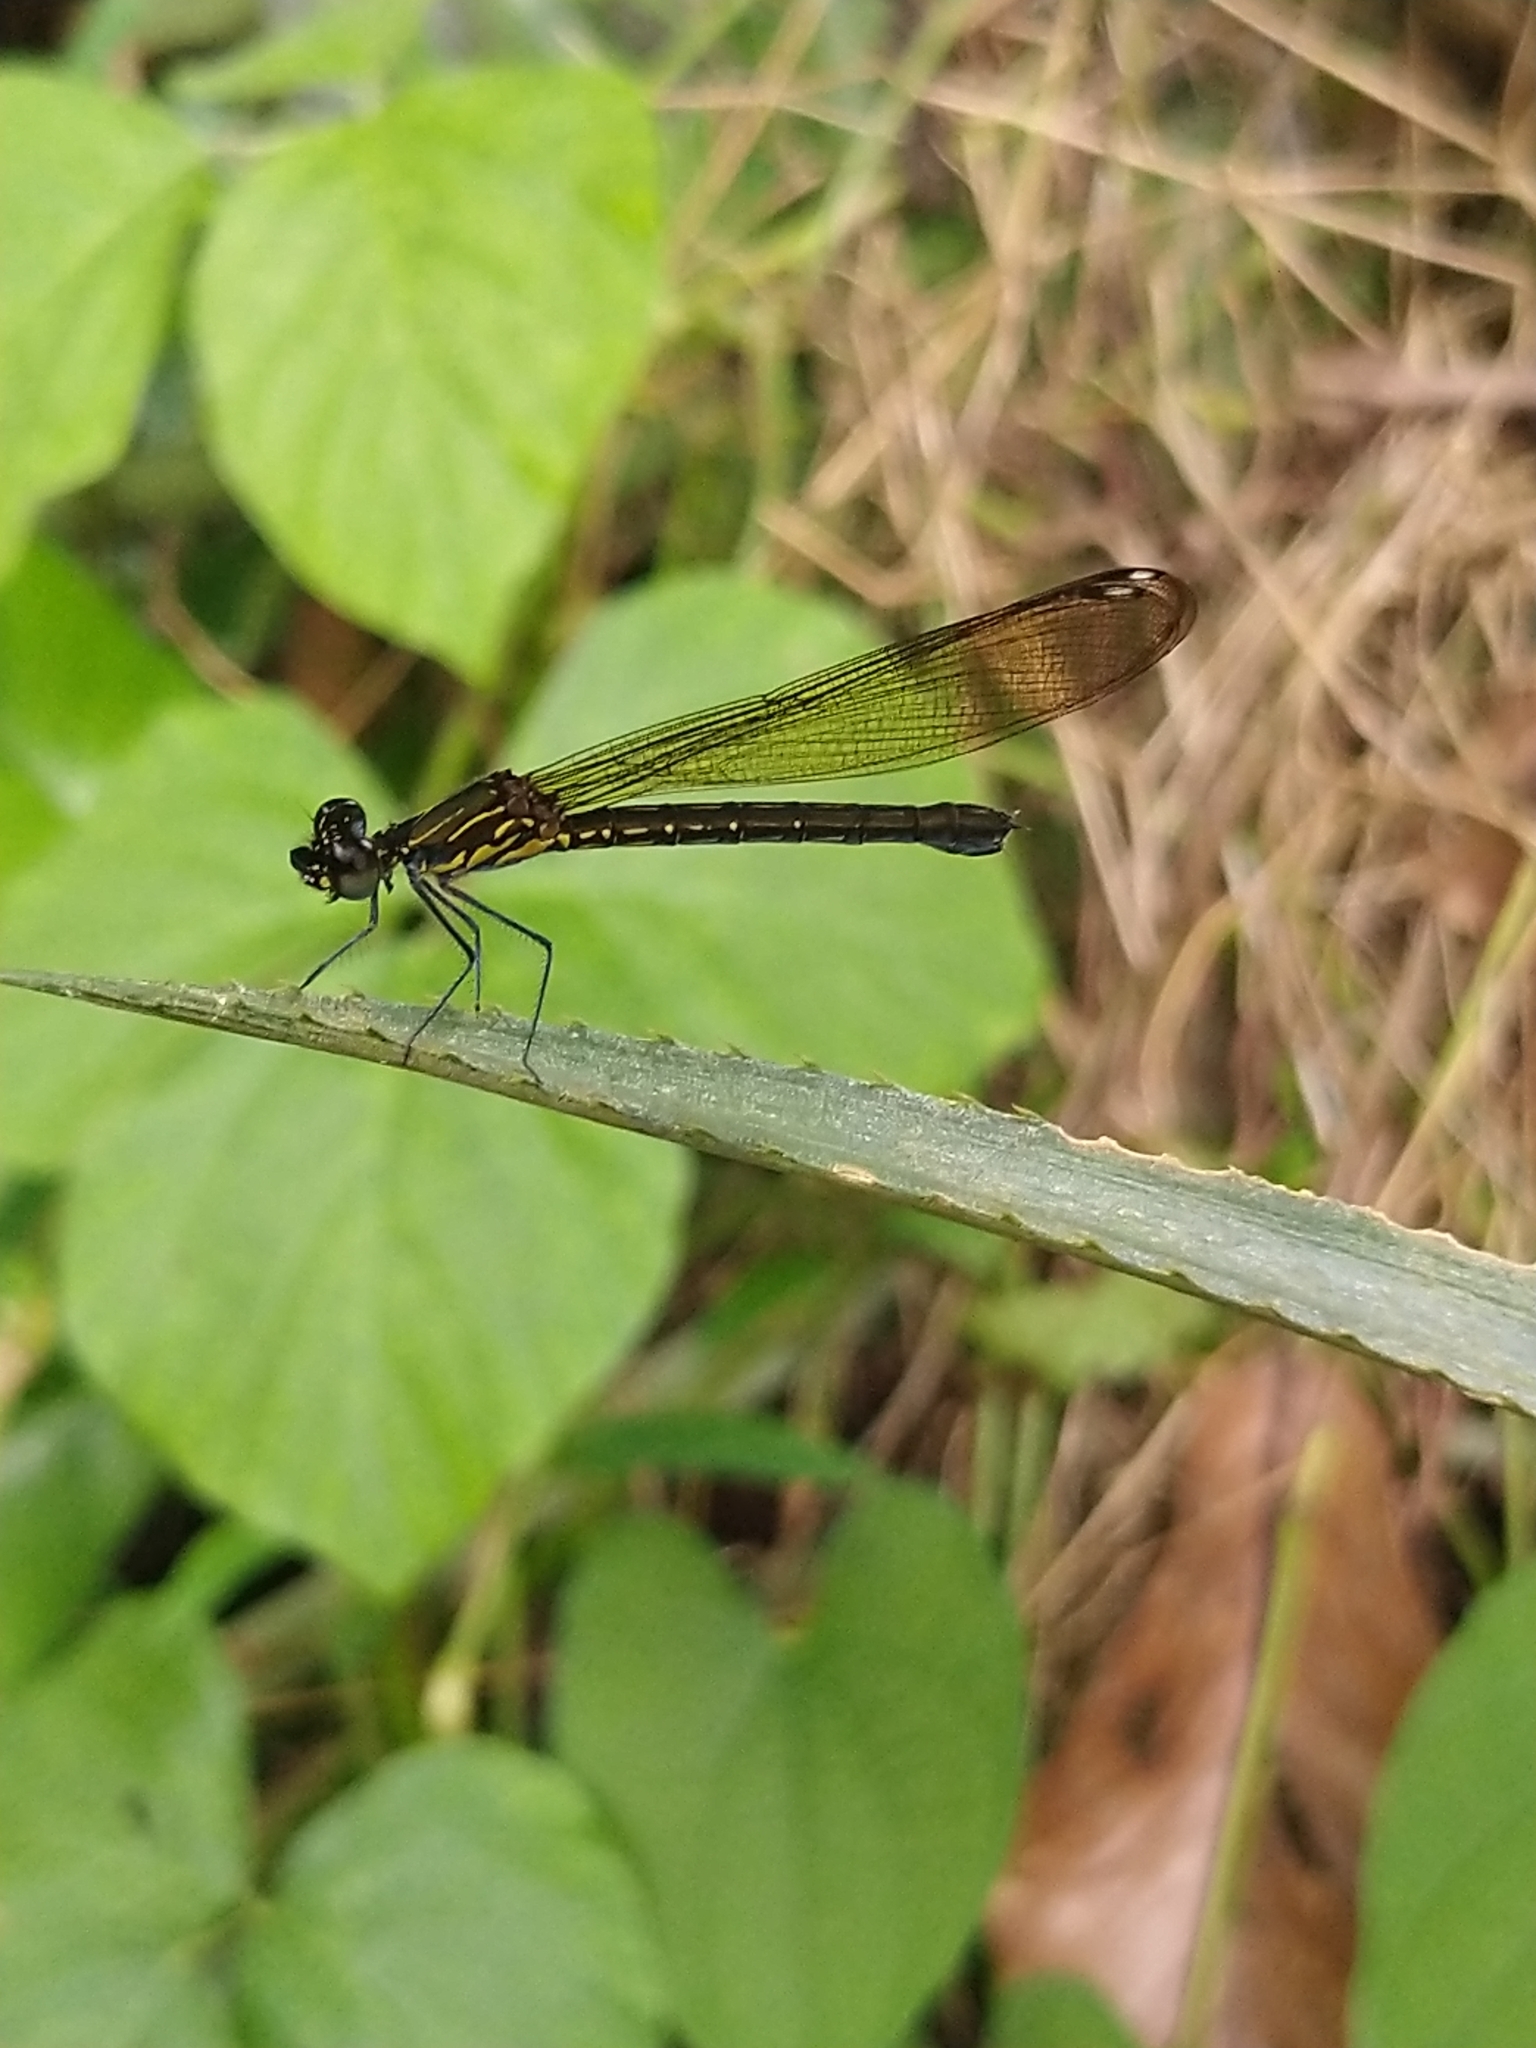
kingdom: Animalia
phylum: Arthropoda
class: Insecta
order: Odonata
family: Chlorocyphidae
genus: Heliocypha
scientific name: Heliocypha bisignata
